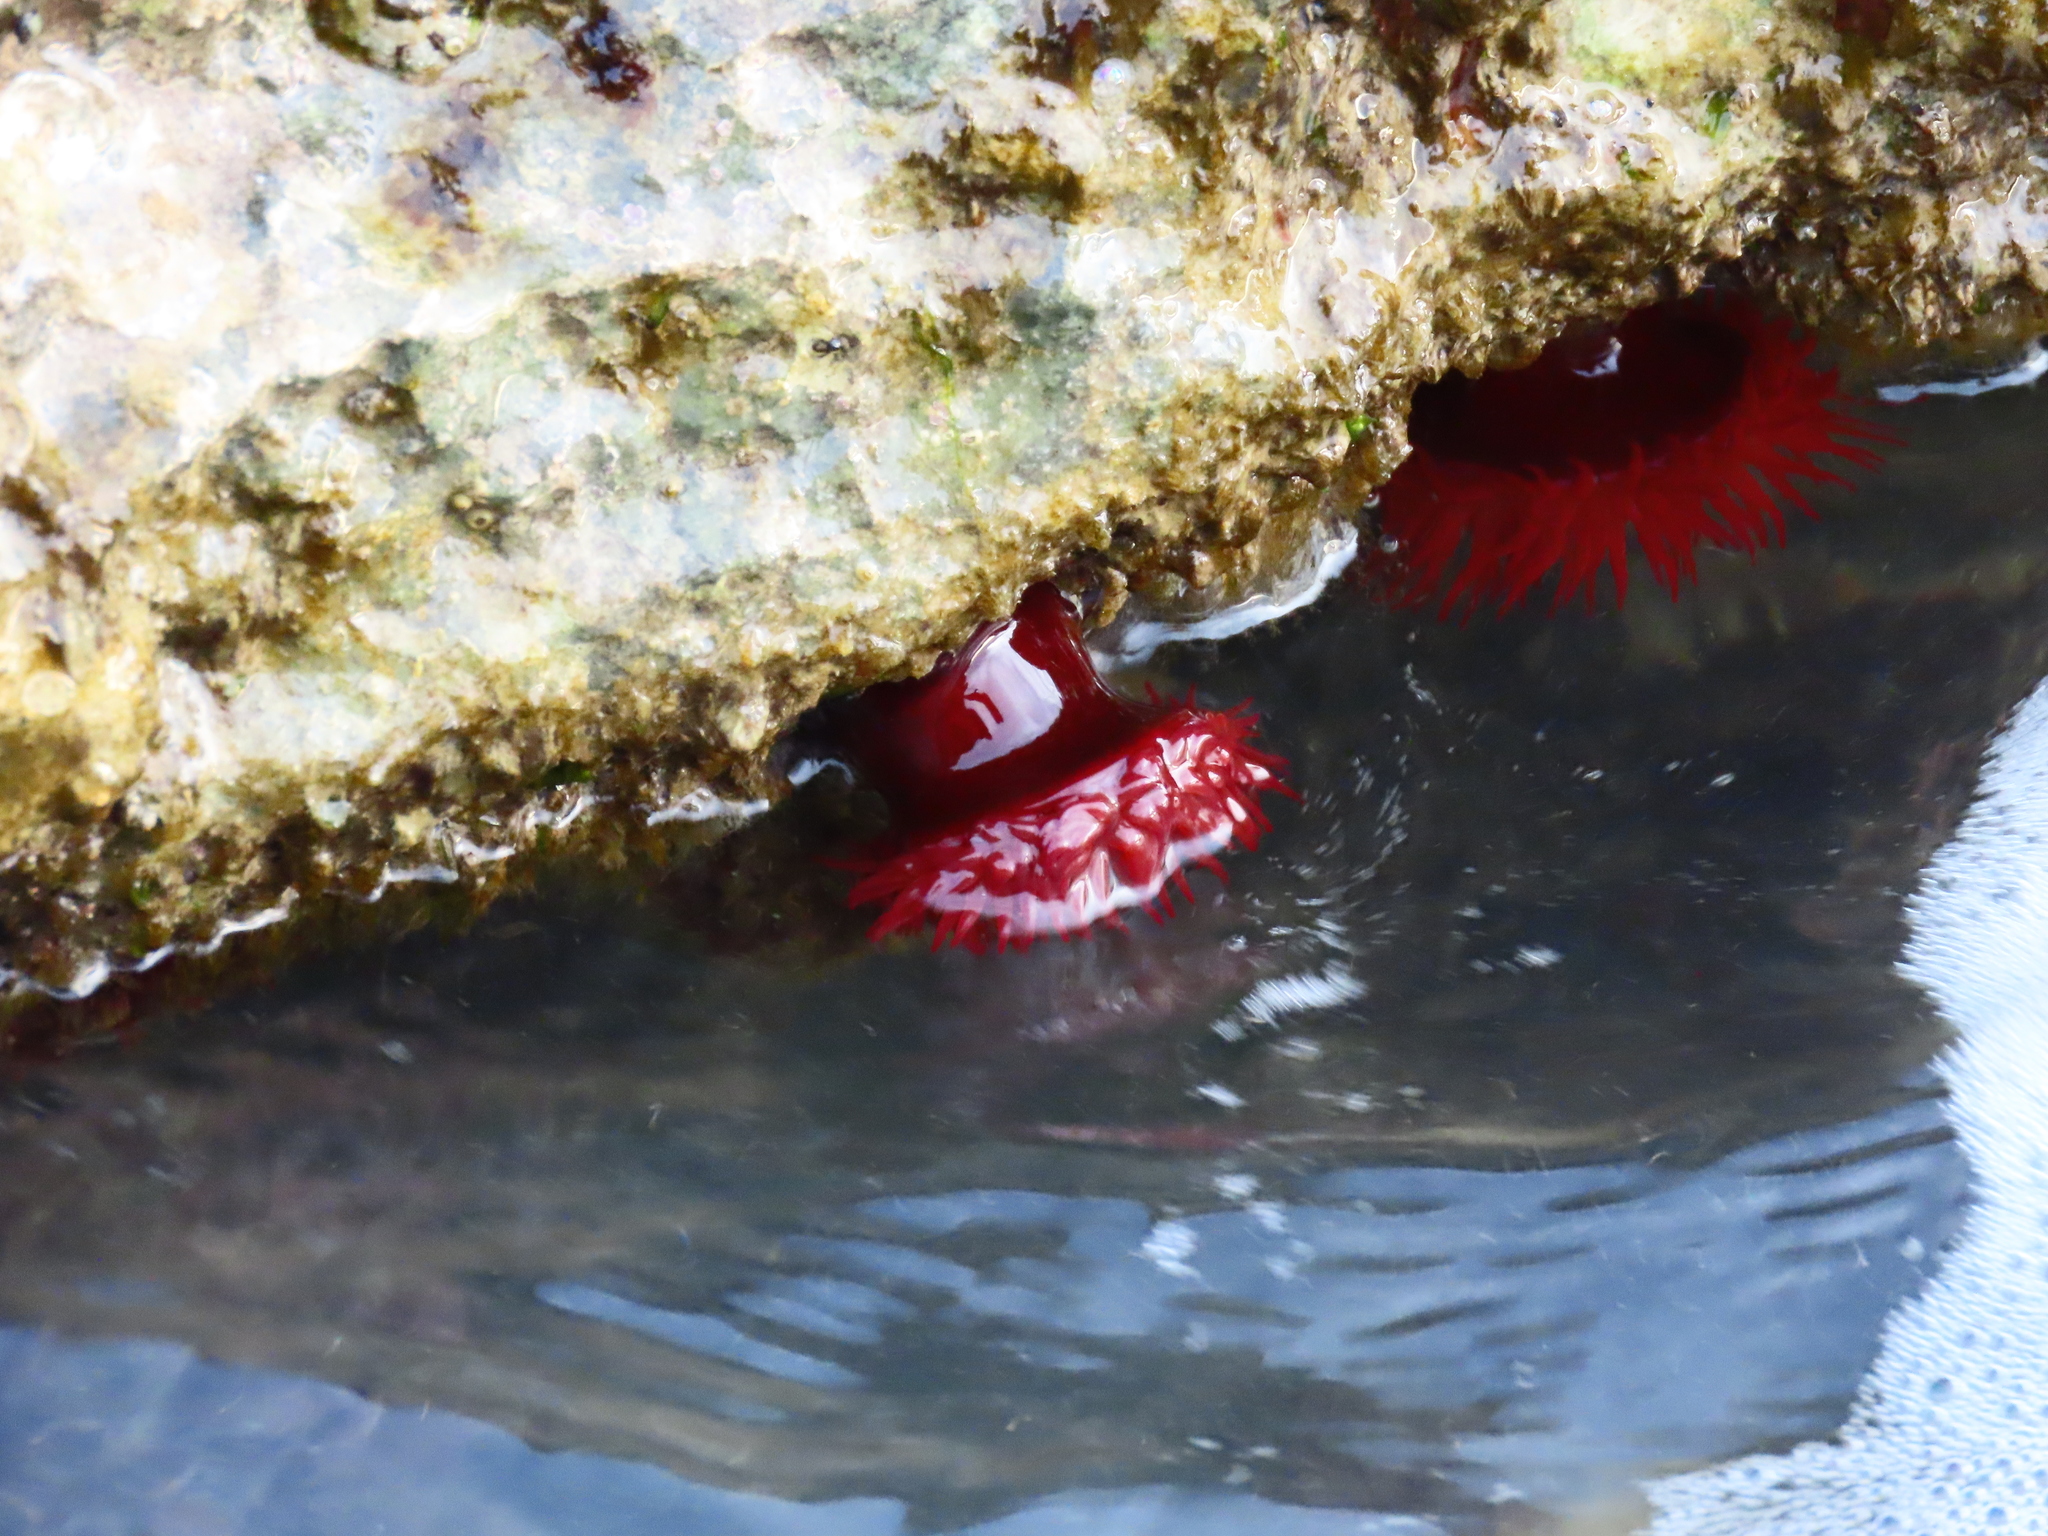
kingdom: Animalia
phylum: Cnidaria
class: Anthozoa
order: Actiniaria
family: Actiniidae
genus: Actinia
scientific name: Actinia mediterranea
